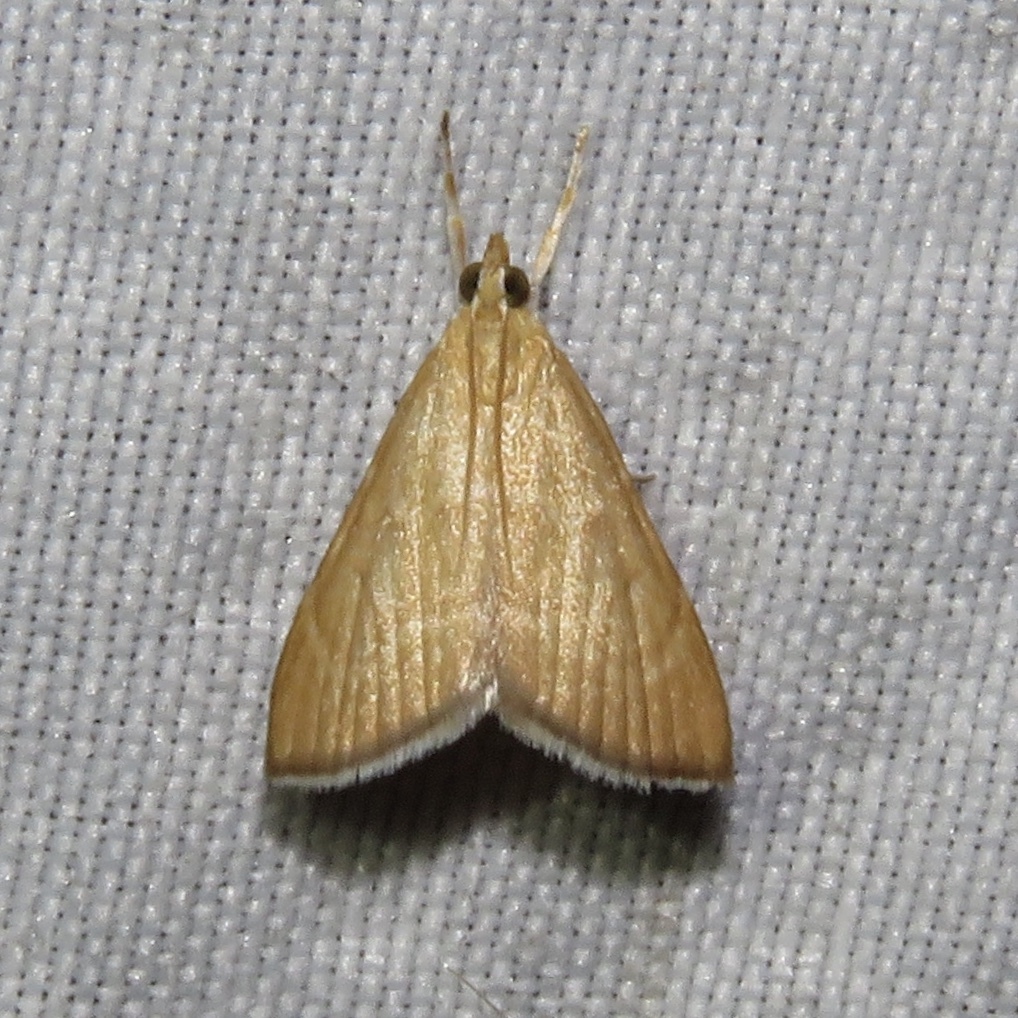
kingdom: Animalia
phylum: Arthropoda
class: Insecta
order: Lepidoptera
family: Crambidae
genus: Glaphyria
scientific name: Glaphyria invisalis
